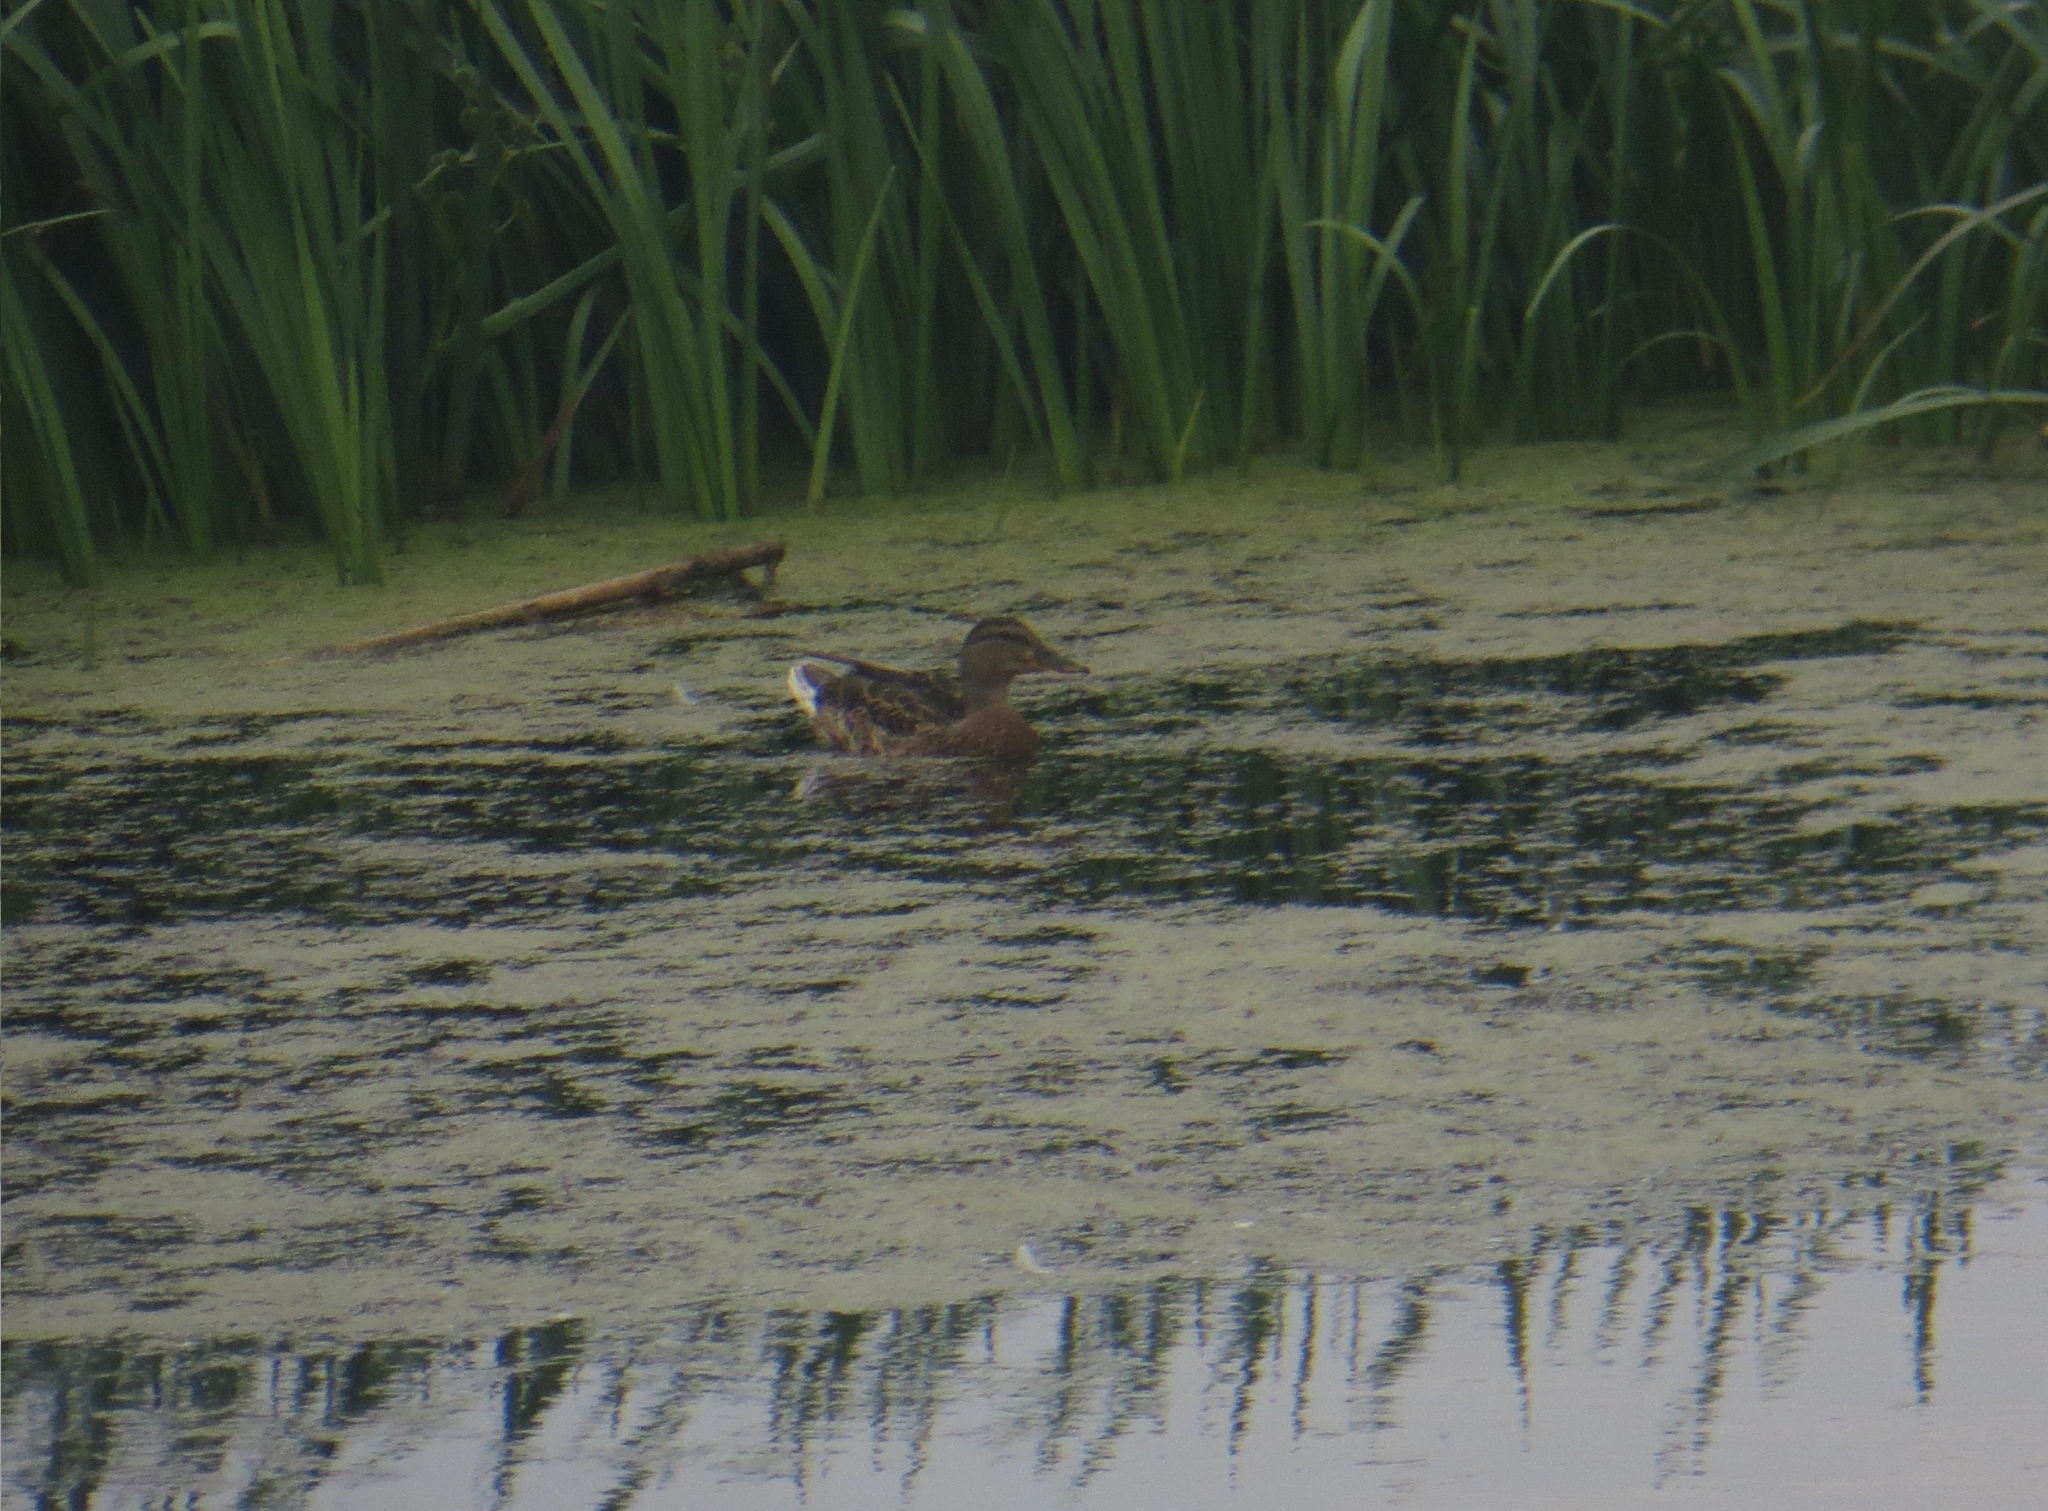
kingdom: Animalia
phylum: Chordata
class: Aves
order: Anseriformes
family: Anatidae
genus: Anas
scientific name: Anas platyrhynchos
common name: Mallard
